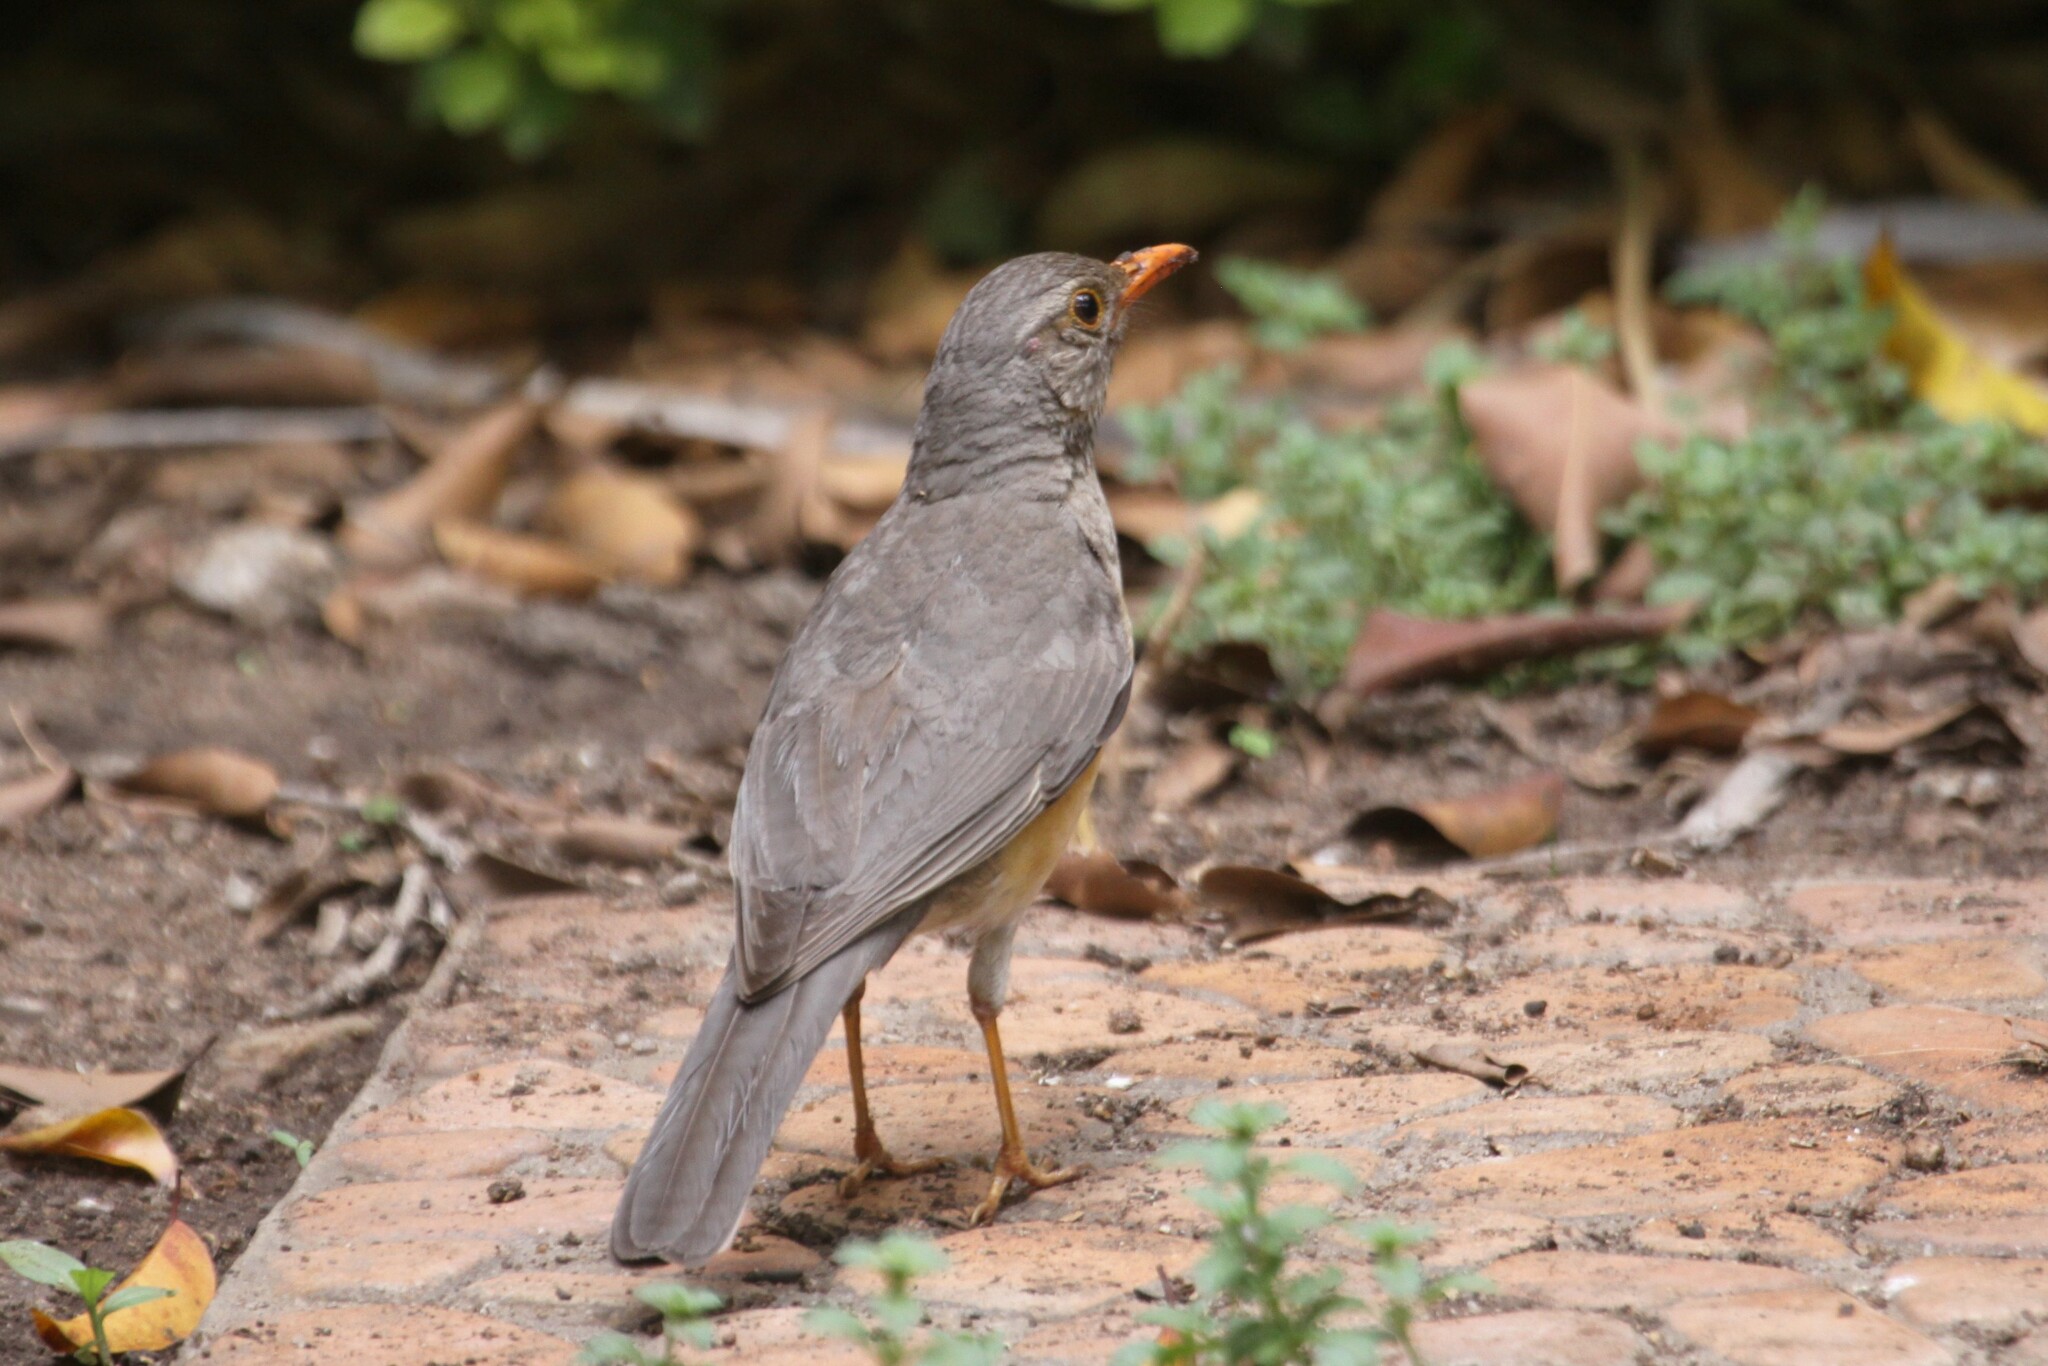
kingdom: Animalia
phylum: Chordata
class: Aves
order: Passeriformes
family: Turdidae
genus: Turdus
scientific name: Turdus libonyana
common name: Kurrichane thrush
